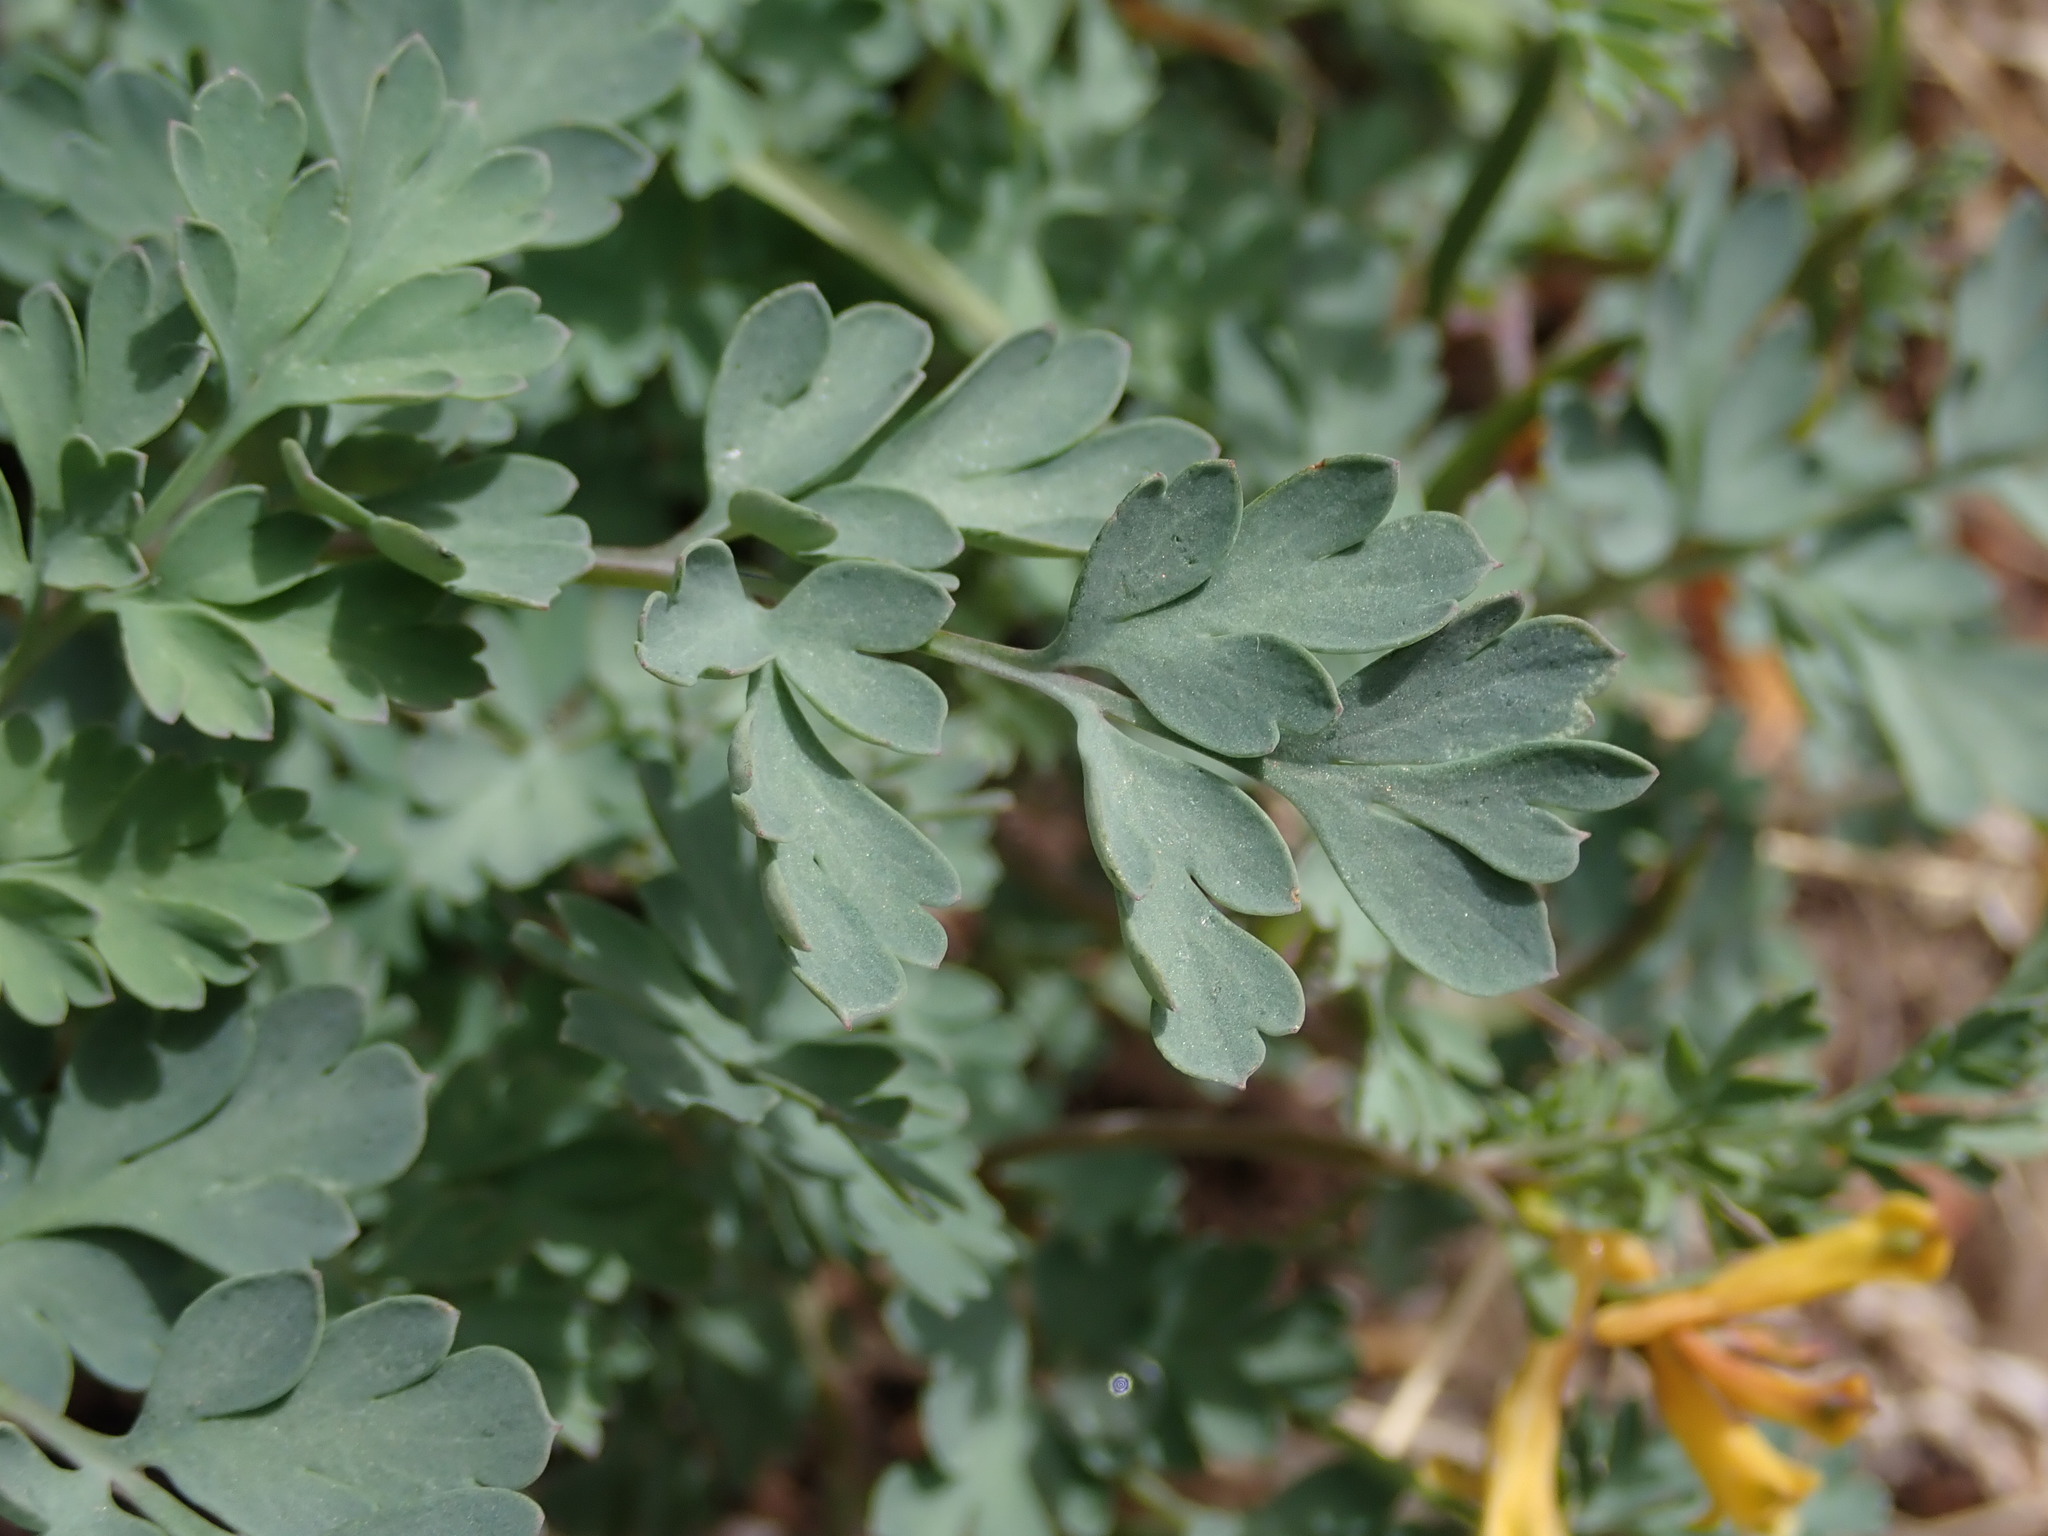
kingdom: Plantae
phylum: Tracheophyta
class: Magnoliopsida
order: Ranunculales
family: Papaveraceae
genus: Corydalis
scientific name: Corydalis aurea
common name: Golden corydalis
